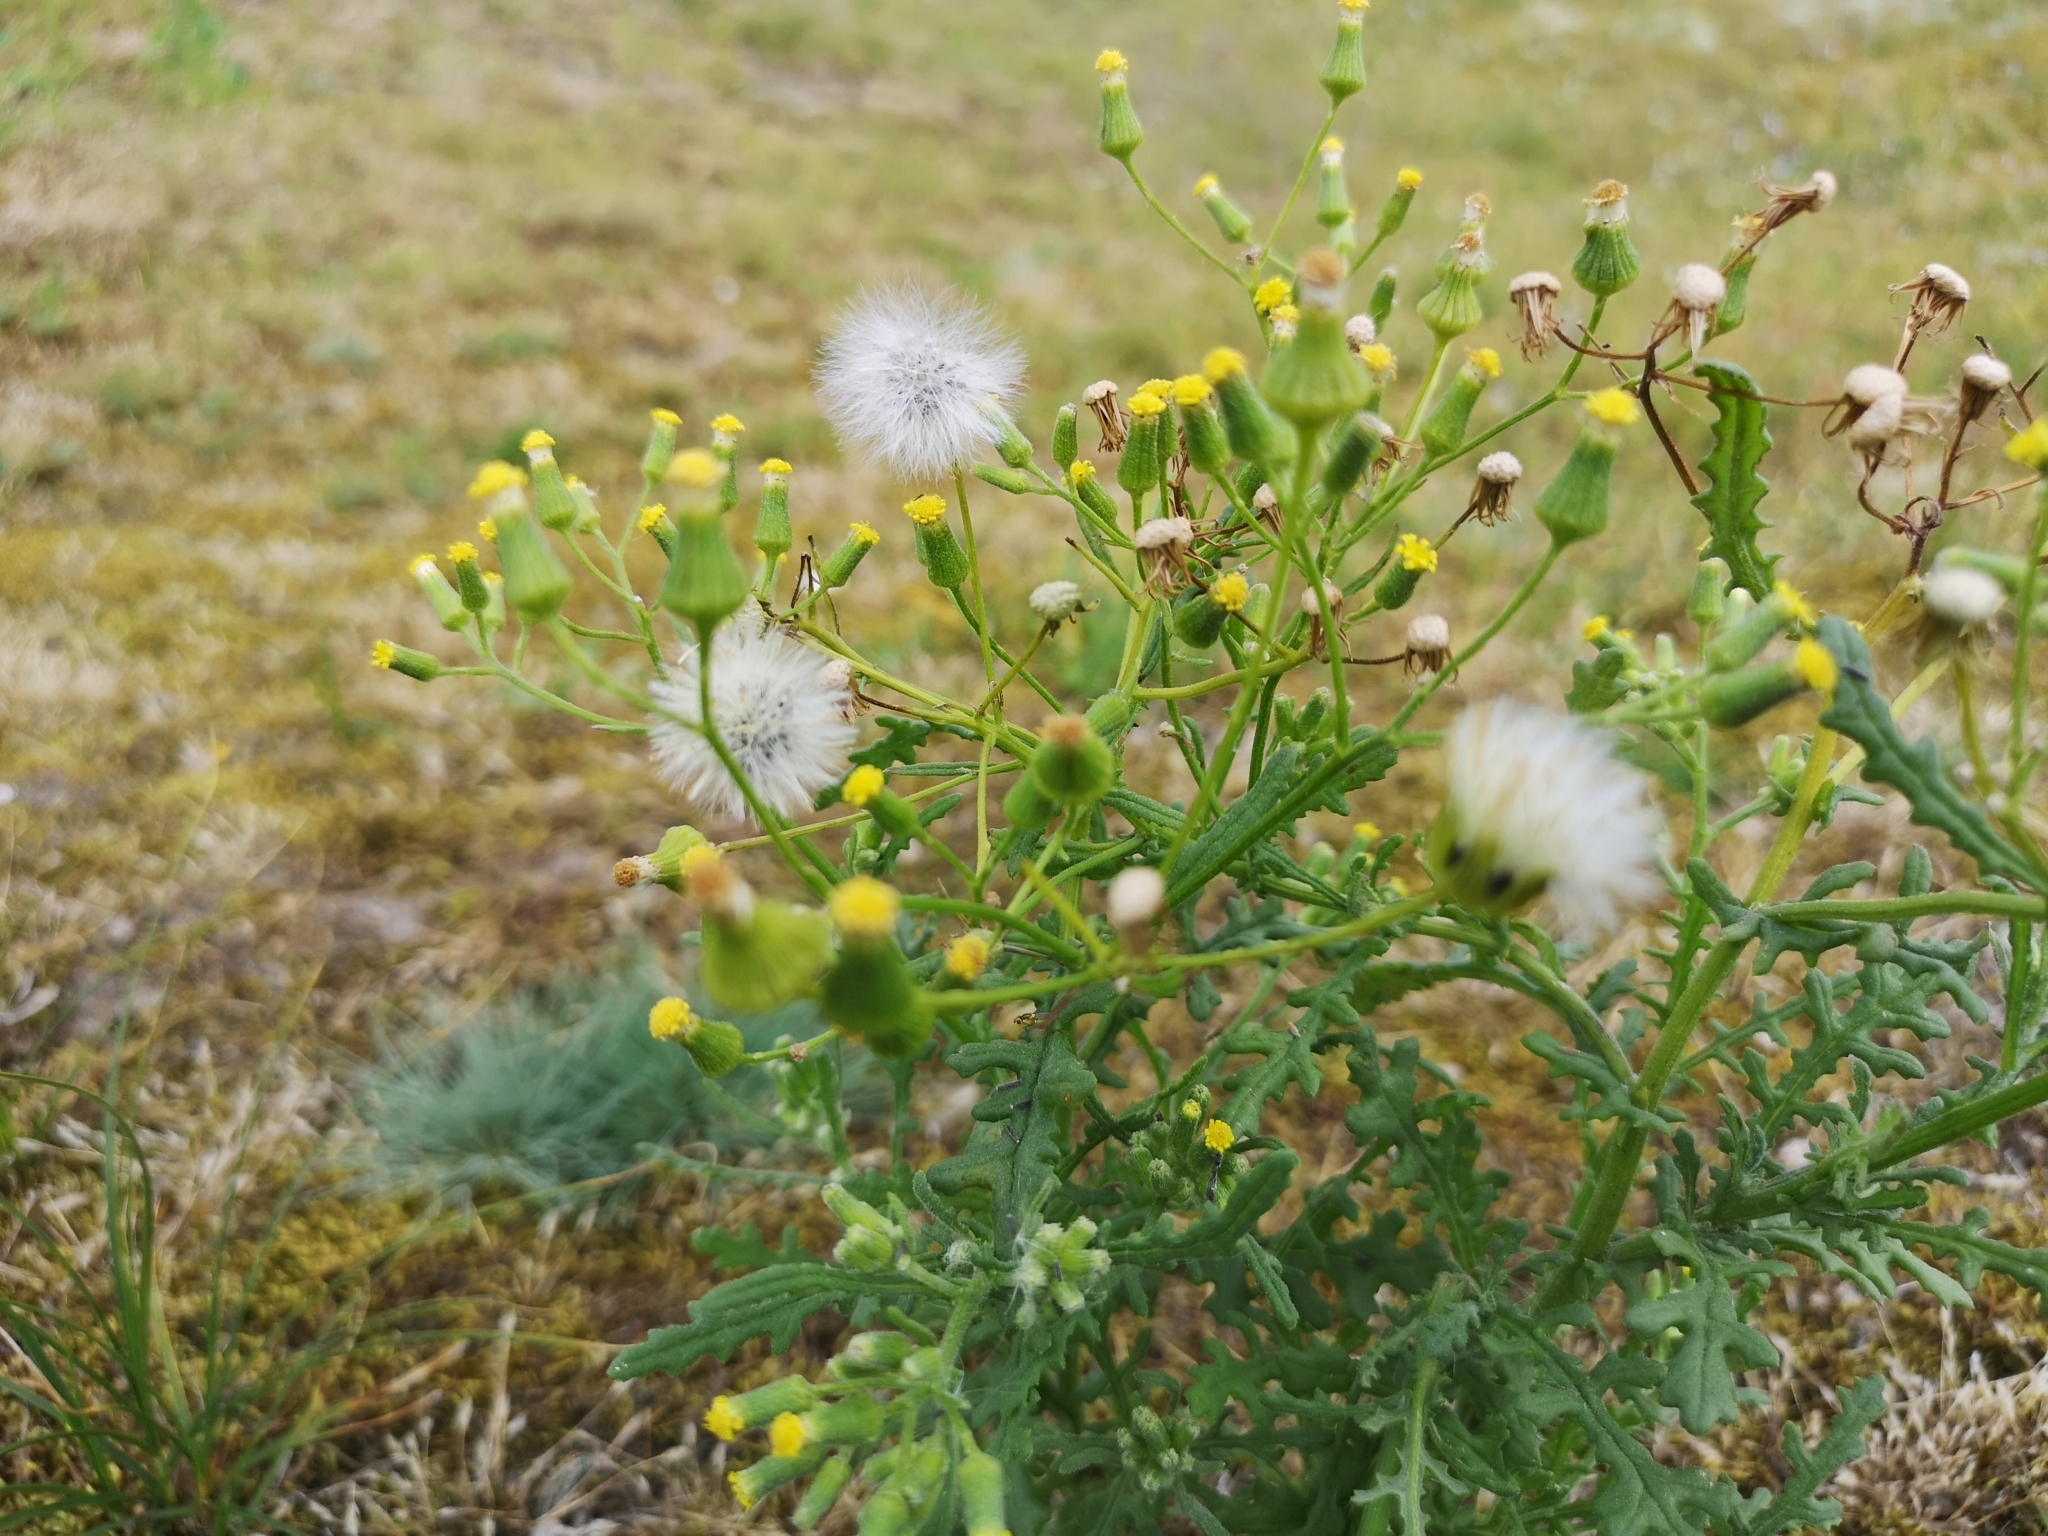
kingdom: Plantae
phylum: Tracheophyta
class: Magnoliopsida
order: Asterales
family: Asteraceae
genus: Senecio
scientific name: Senecio sylvaticus
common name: Woodland ragwort
